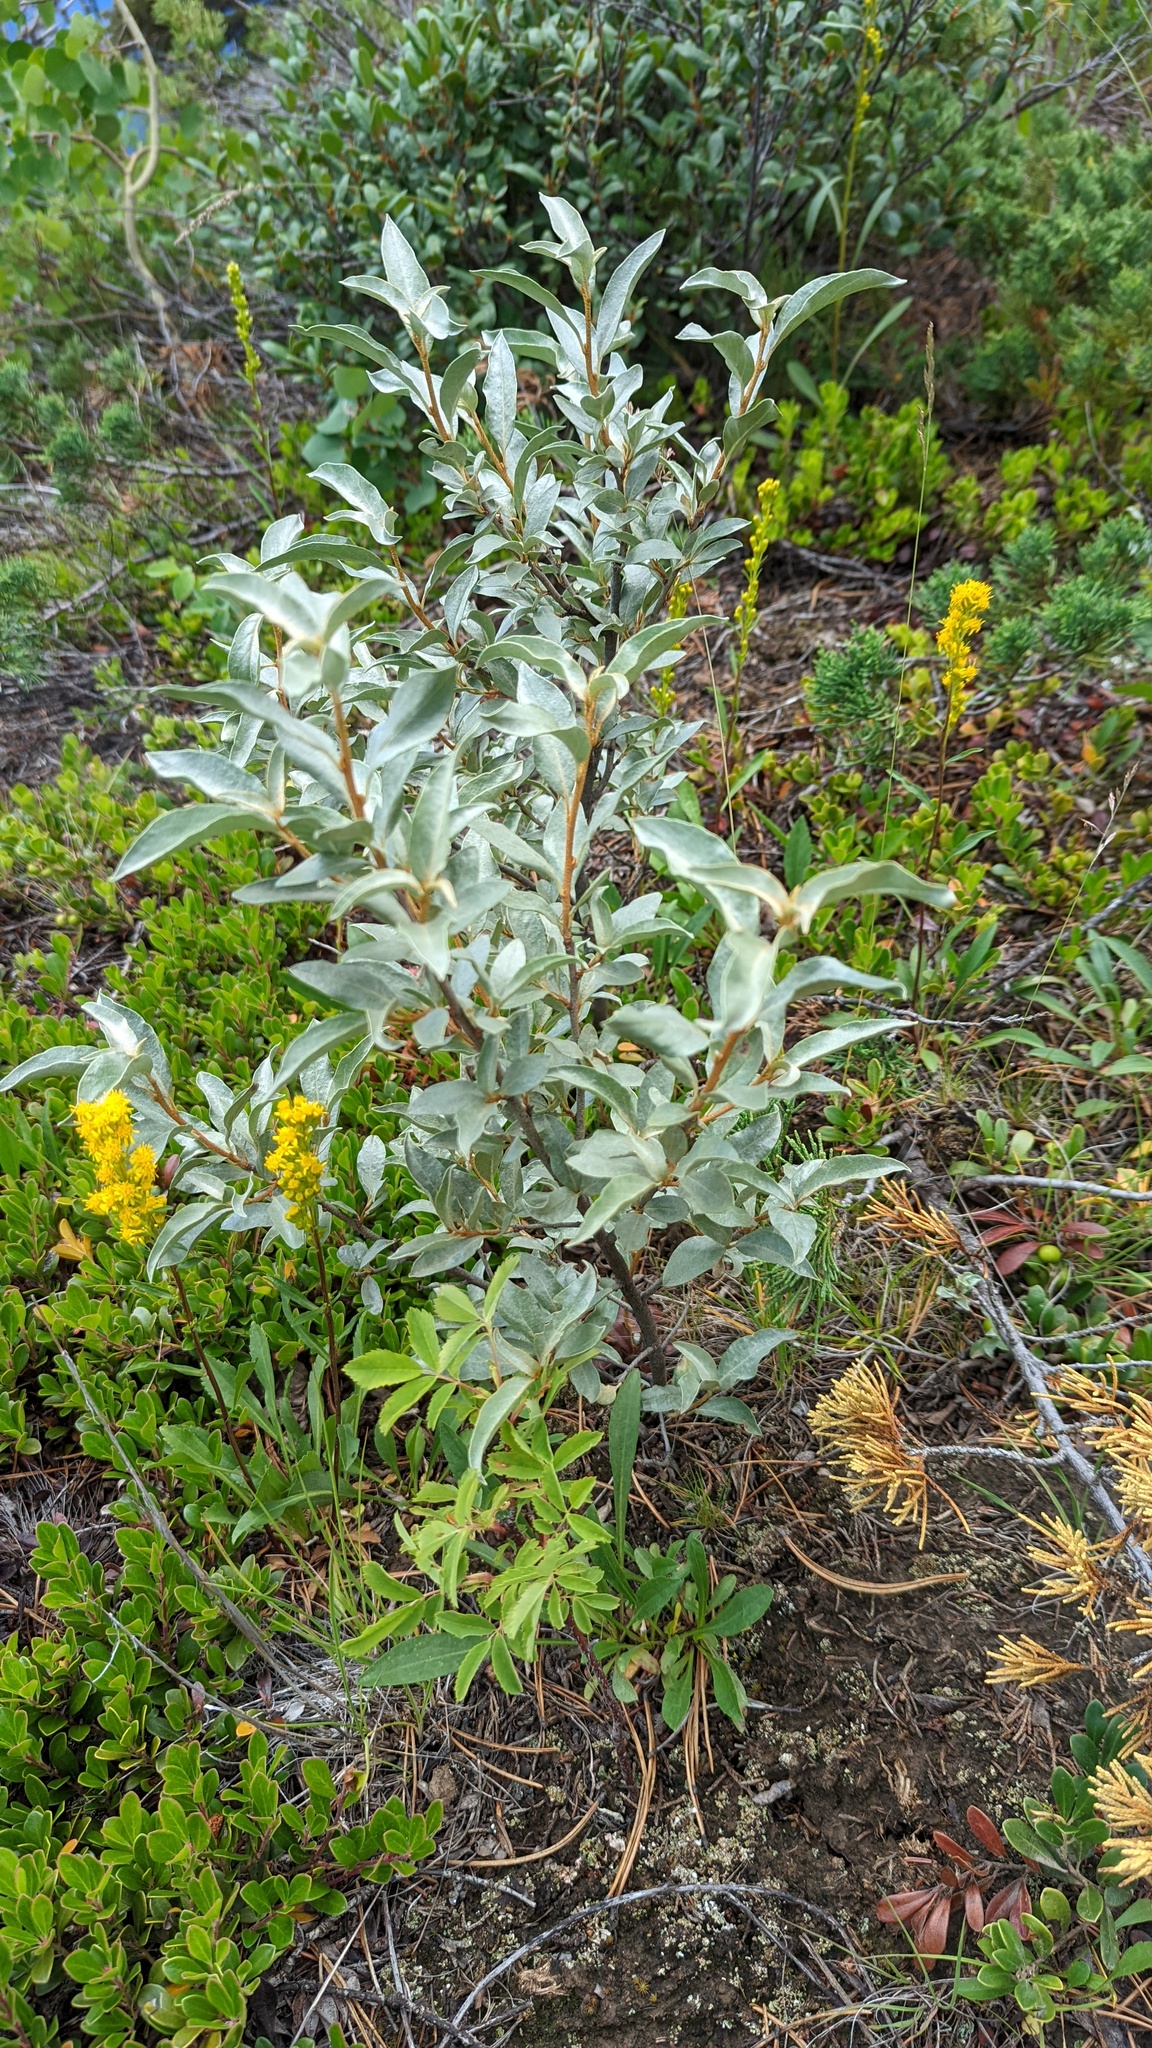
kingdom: Plantae
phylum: Tracheophyta
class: Magnoliopsida
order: Rosales
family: Elaeagnaceae
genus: Elaeagnus
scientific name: Elaeagnus commutata
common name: Silverberry
